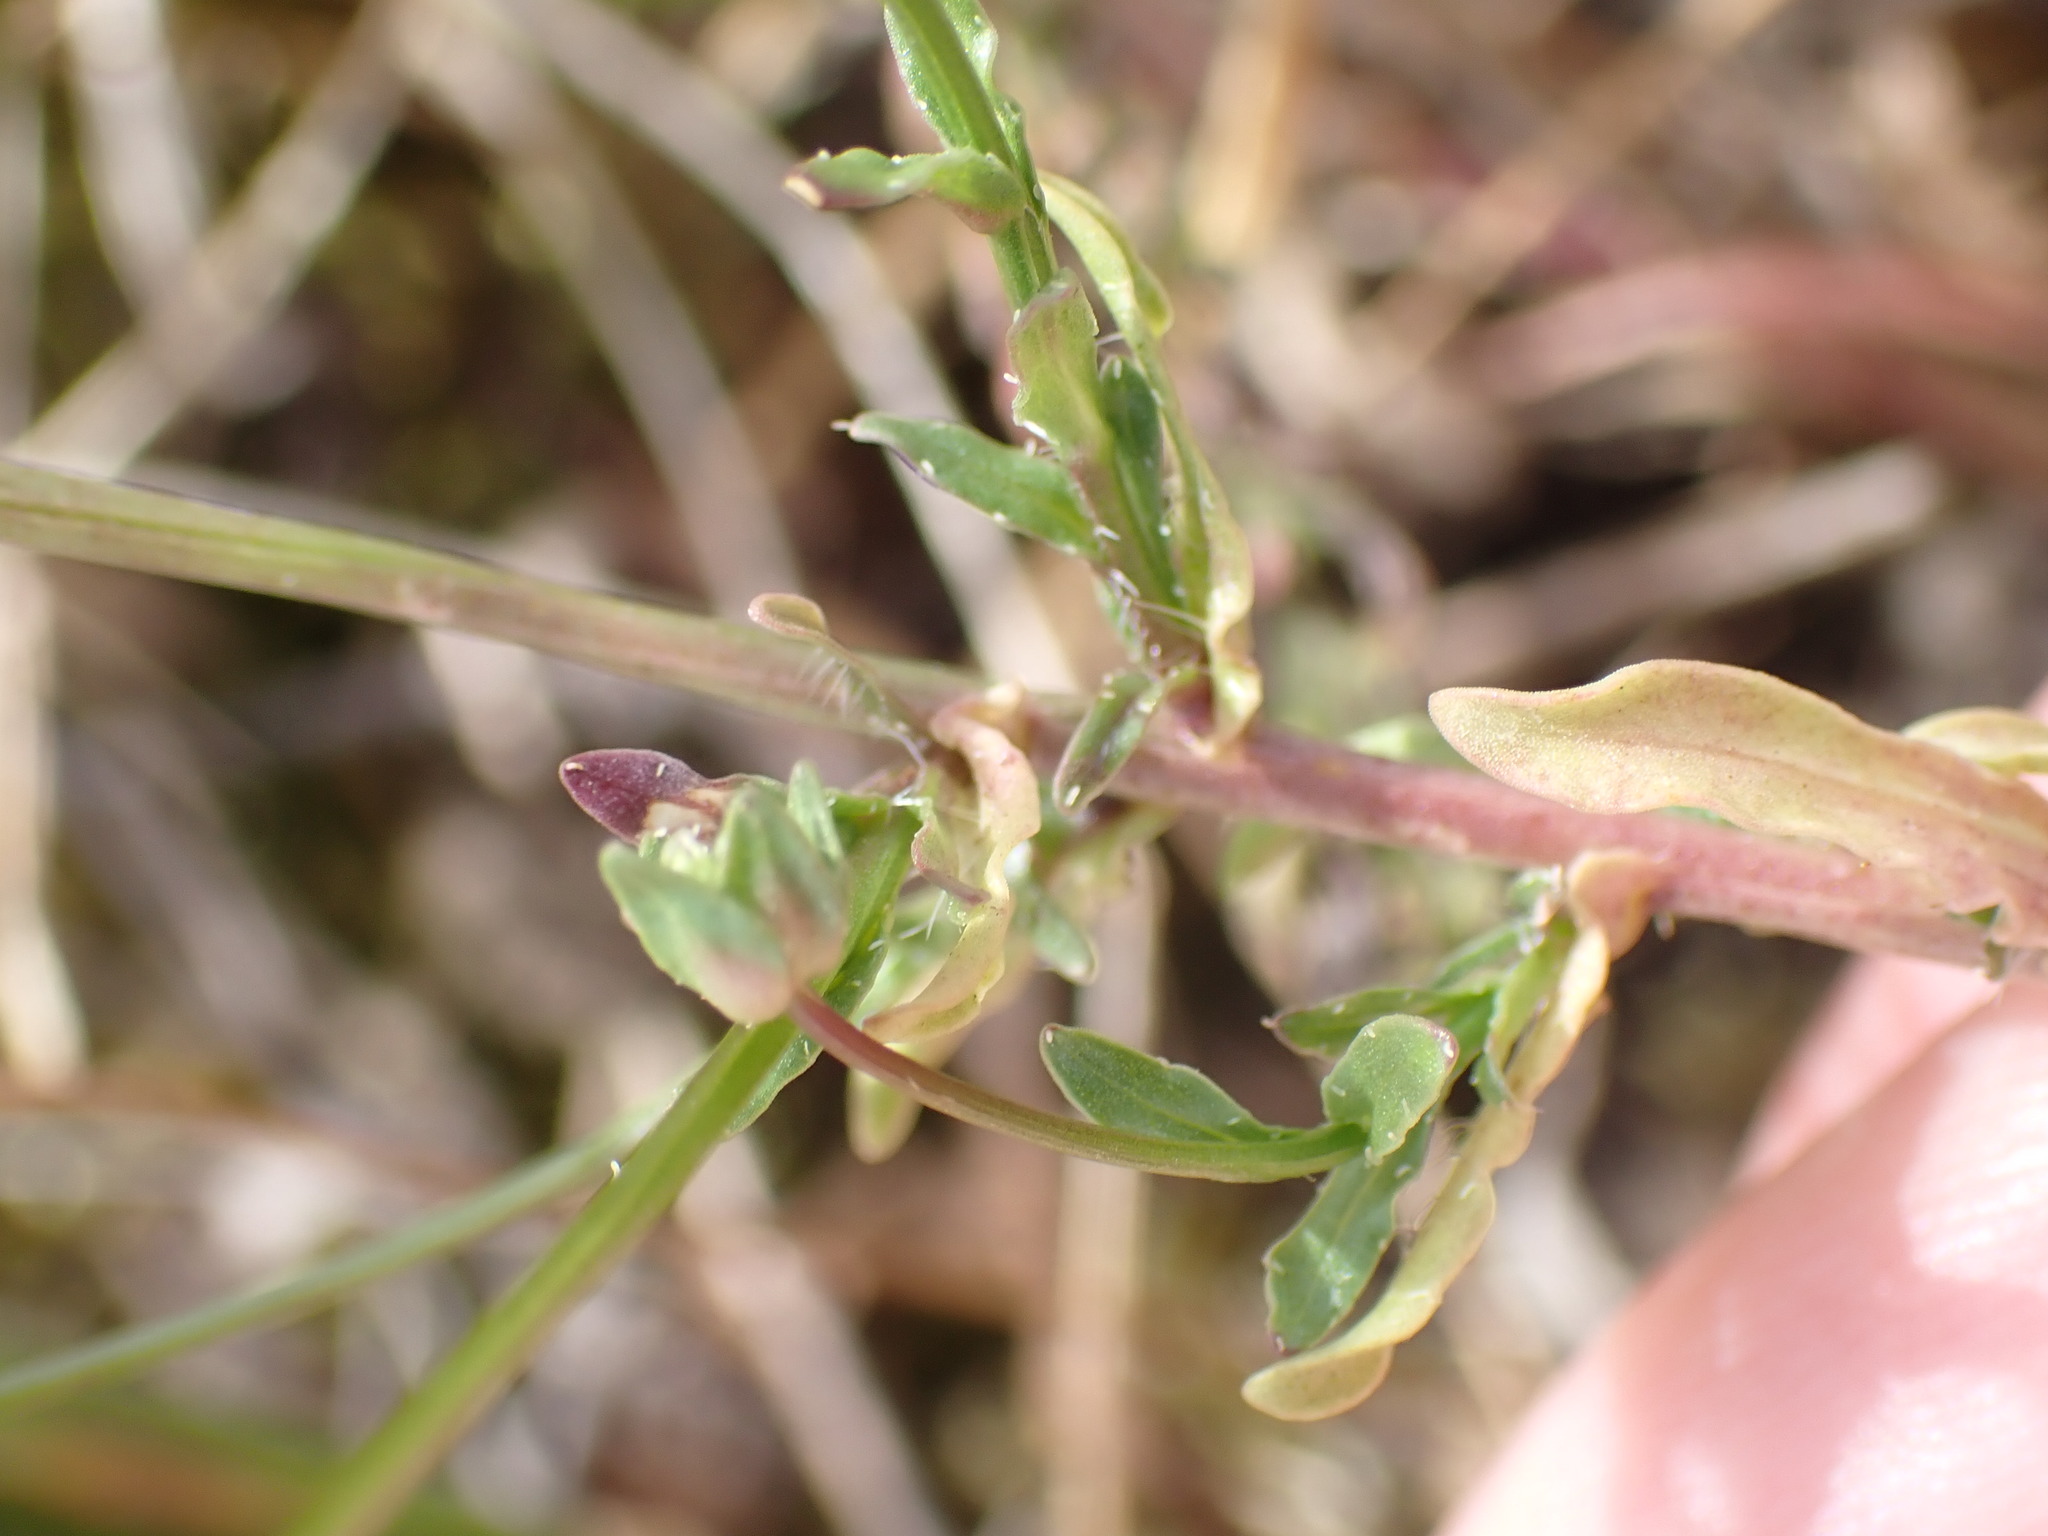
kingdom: Plantae
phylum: Tracheophyta
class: Magnoliopsida
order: Asterales
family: Campanulaceae
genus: Jasione
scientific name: Jasione montana
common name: Sheep's-bit
